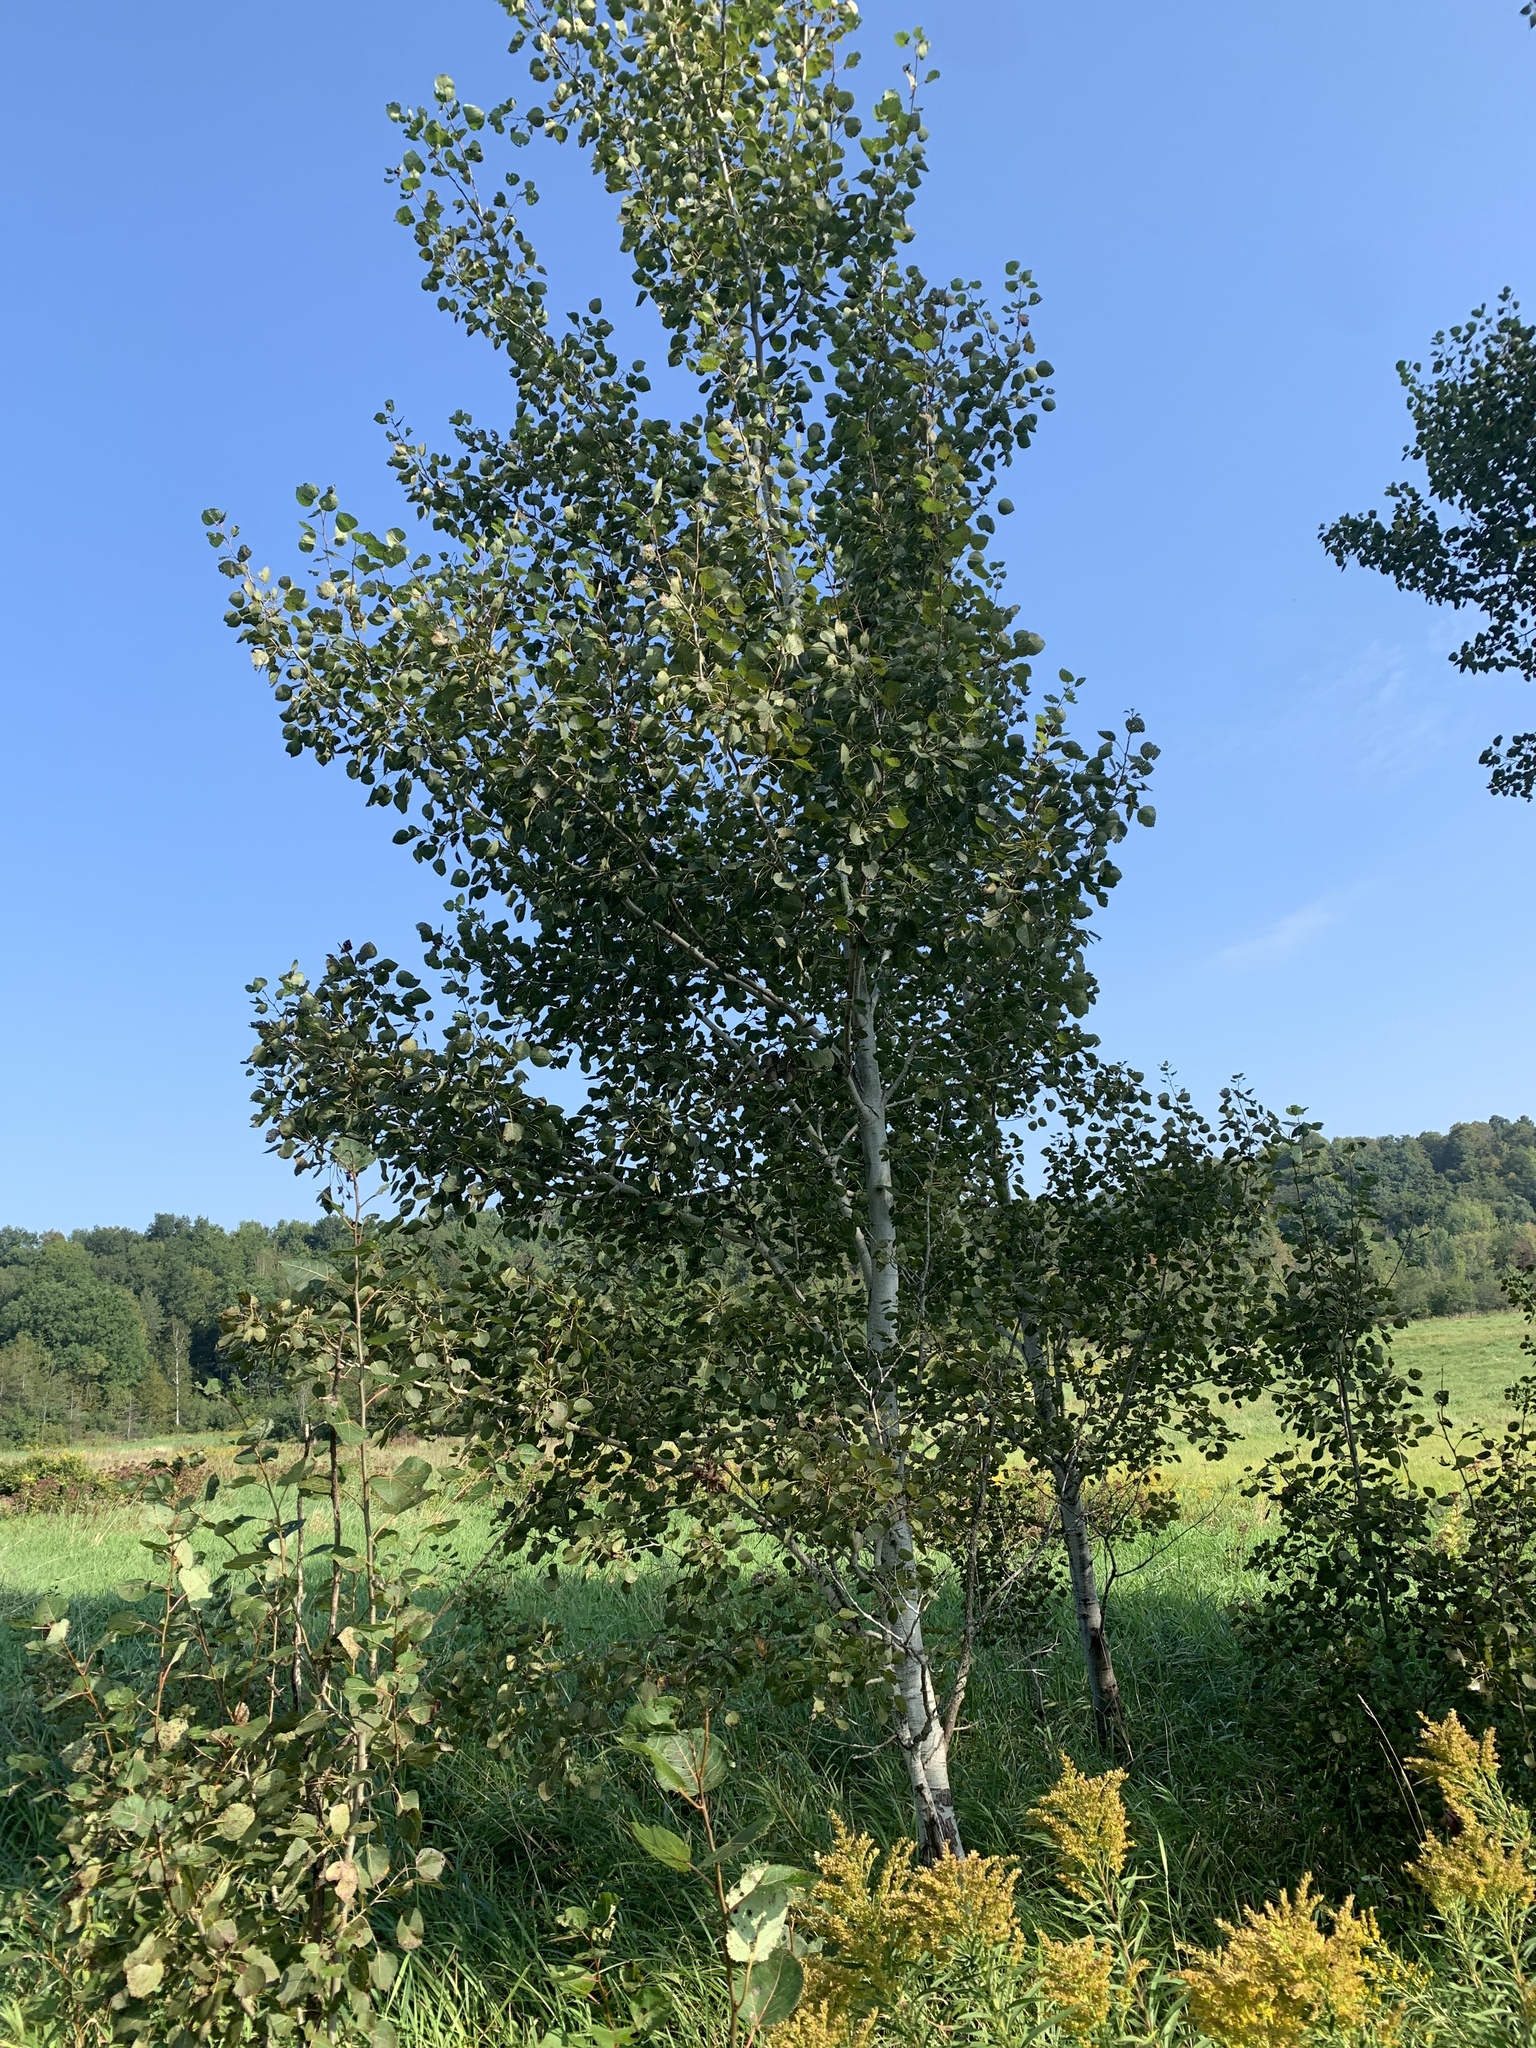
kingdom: Plantae
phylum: Tracheophyta
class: Magnoliopsida
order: Malpighiales
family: Salicaceae
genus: Populus
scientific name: Populus tremuloides
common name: Quaking aspen
